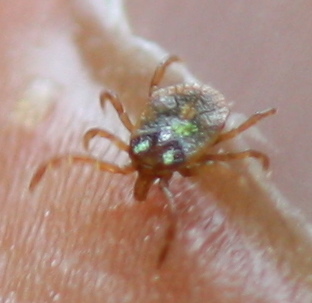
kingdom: Animalia
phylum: Arthropoda
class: Arachnida
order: Ixodida
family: Ixodidae
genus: Amblyomma
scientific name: Amblyomma geoemydae
